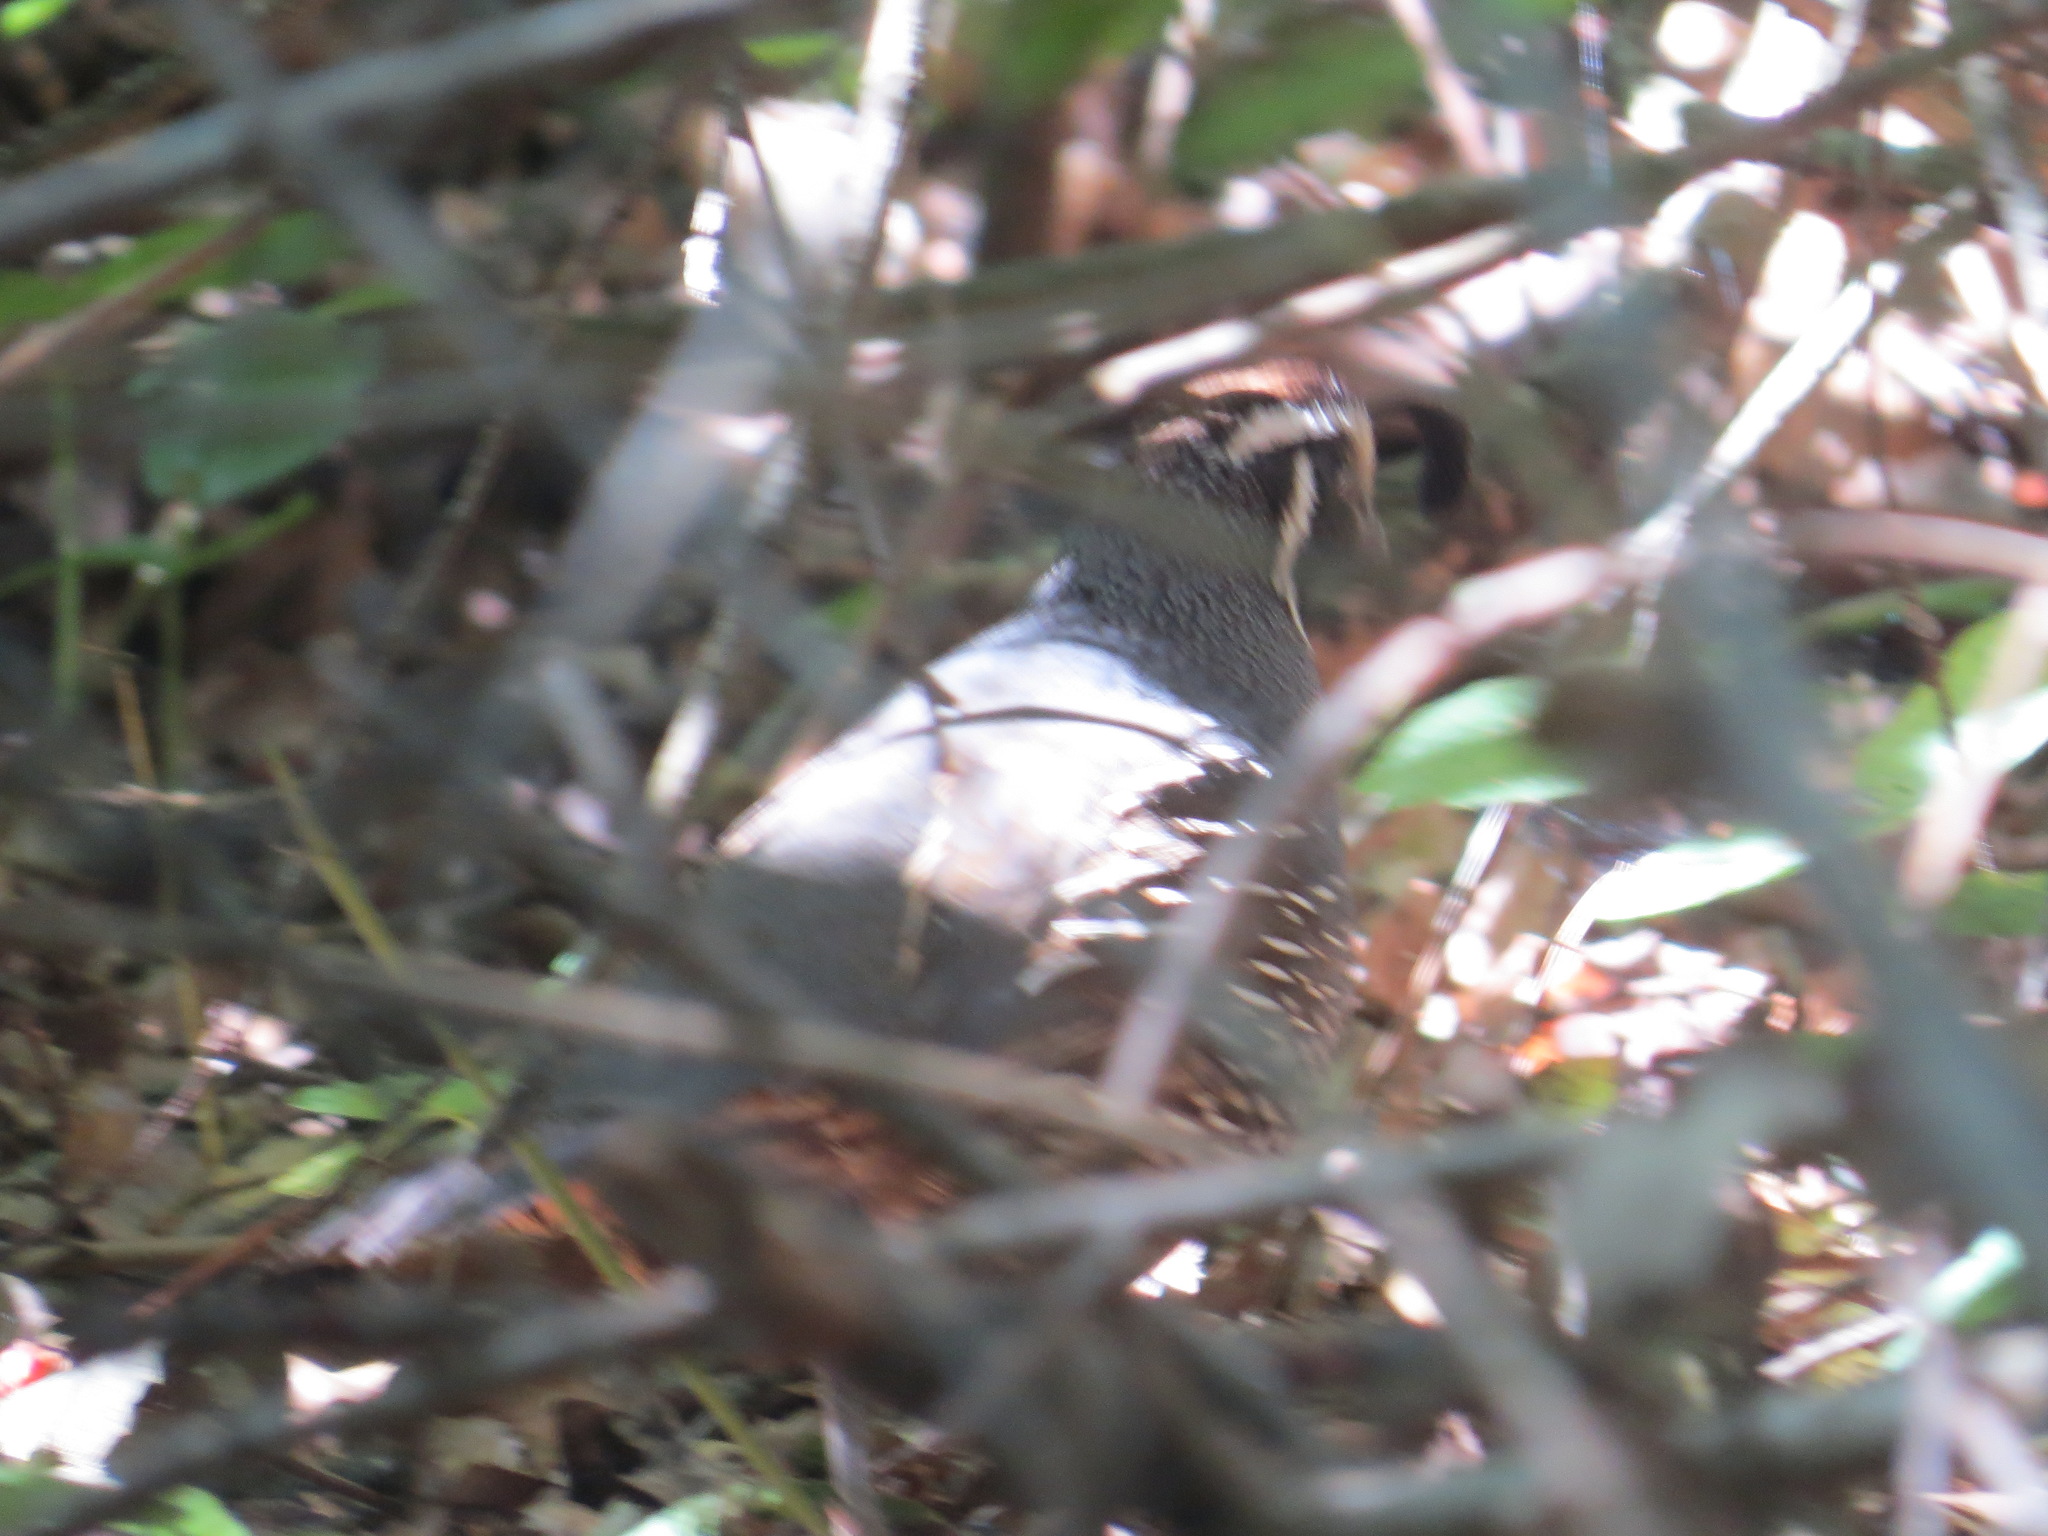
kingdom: Animalia
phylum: Chordata
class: Aves
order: Galliformes
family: Odontophoridae
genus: Callipepla
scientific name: Callipepla californica
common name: California quail
